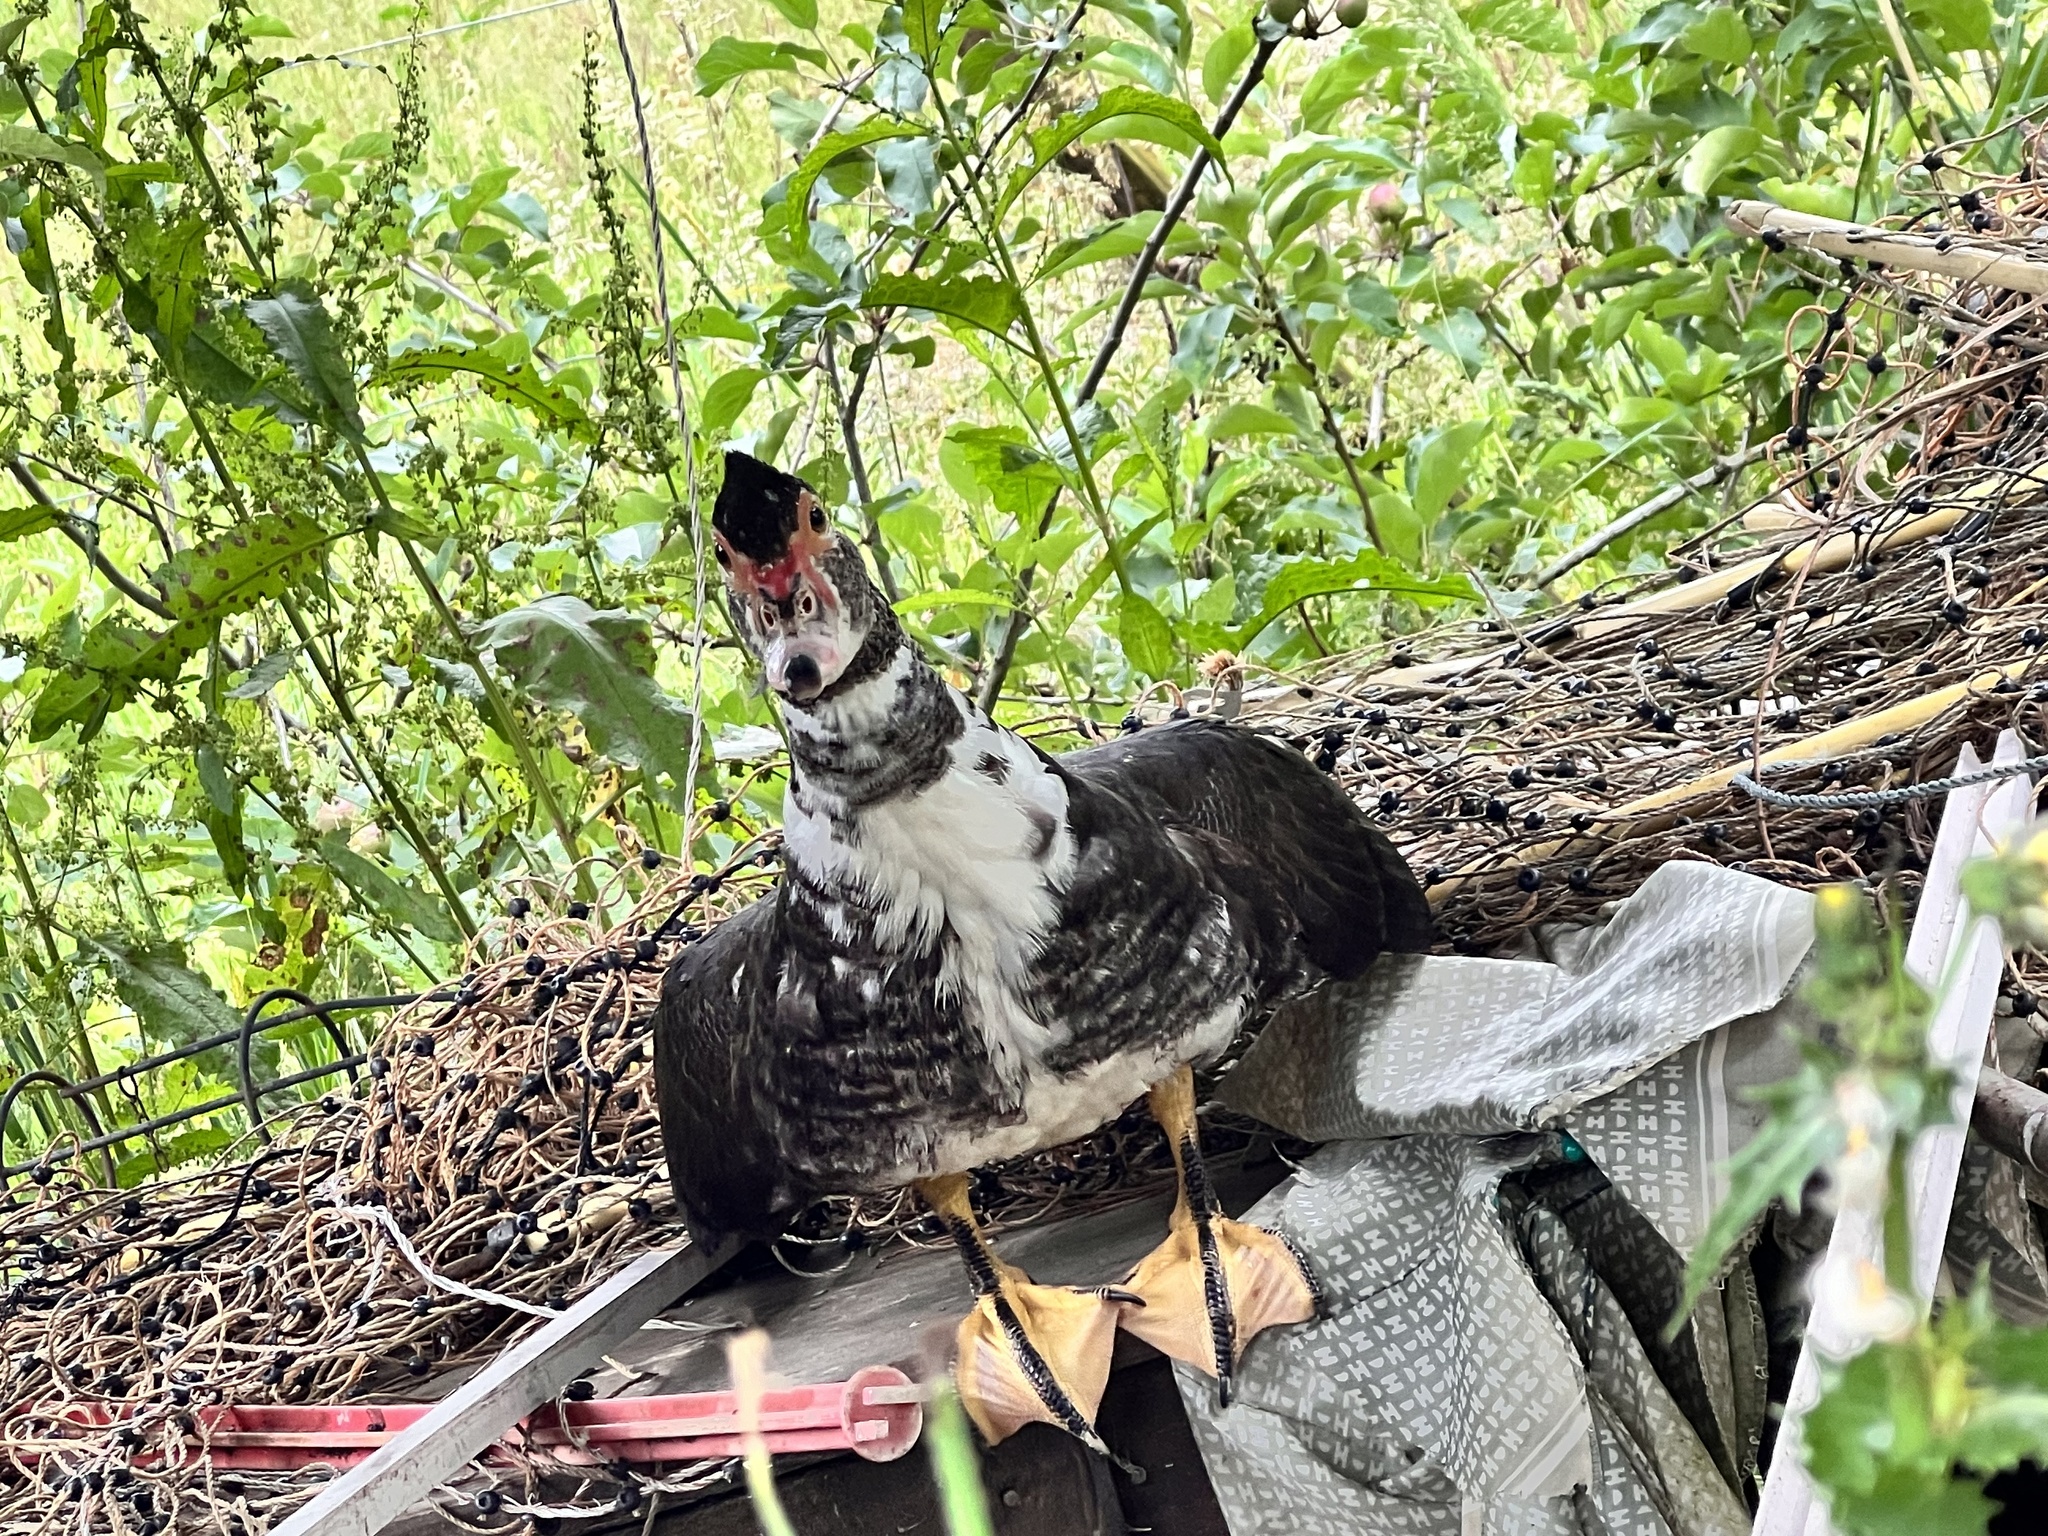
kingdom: Animalia
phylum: Chordata
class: Aves
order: Anseriformes
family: Anatidae
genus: Cairina
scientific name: Cairina moschata
